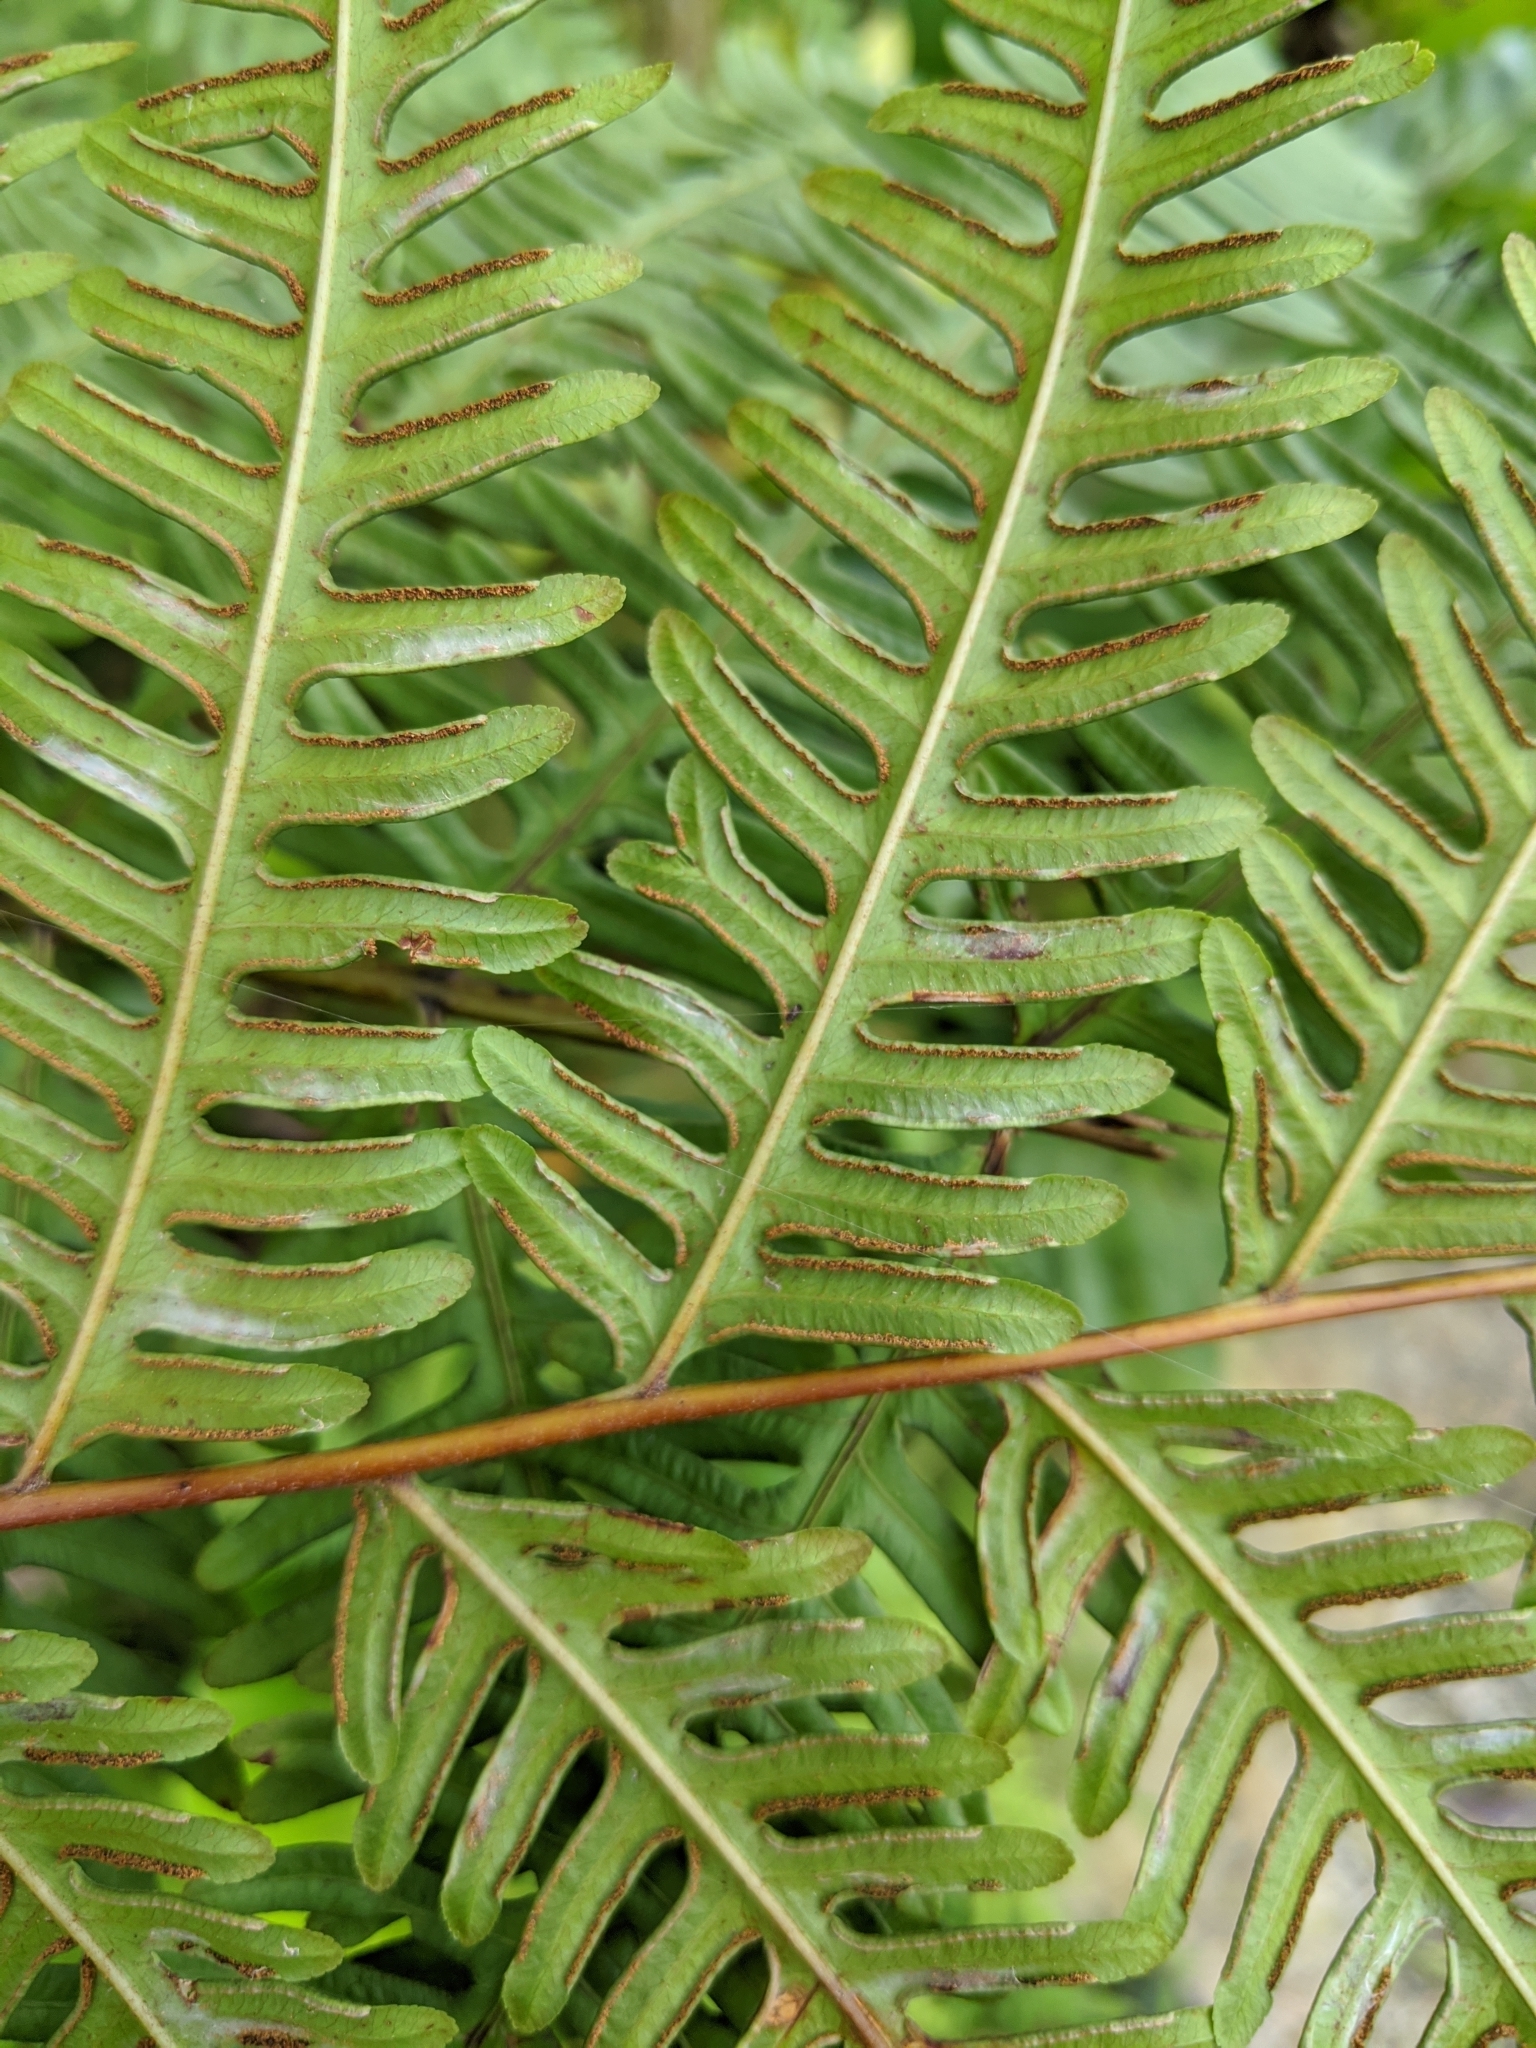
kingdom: Plantae
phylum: Tracheophyta
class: Polypodiopsida
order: Polypodiales
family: Pteridaceae
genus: Pteris
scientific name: Pteris wallichiana
